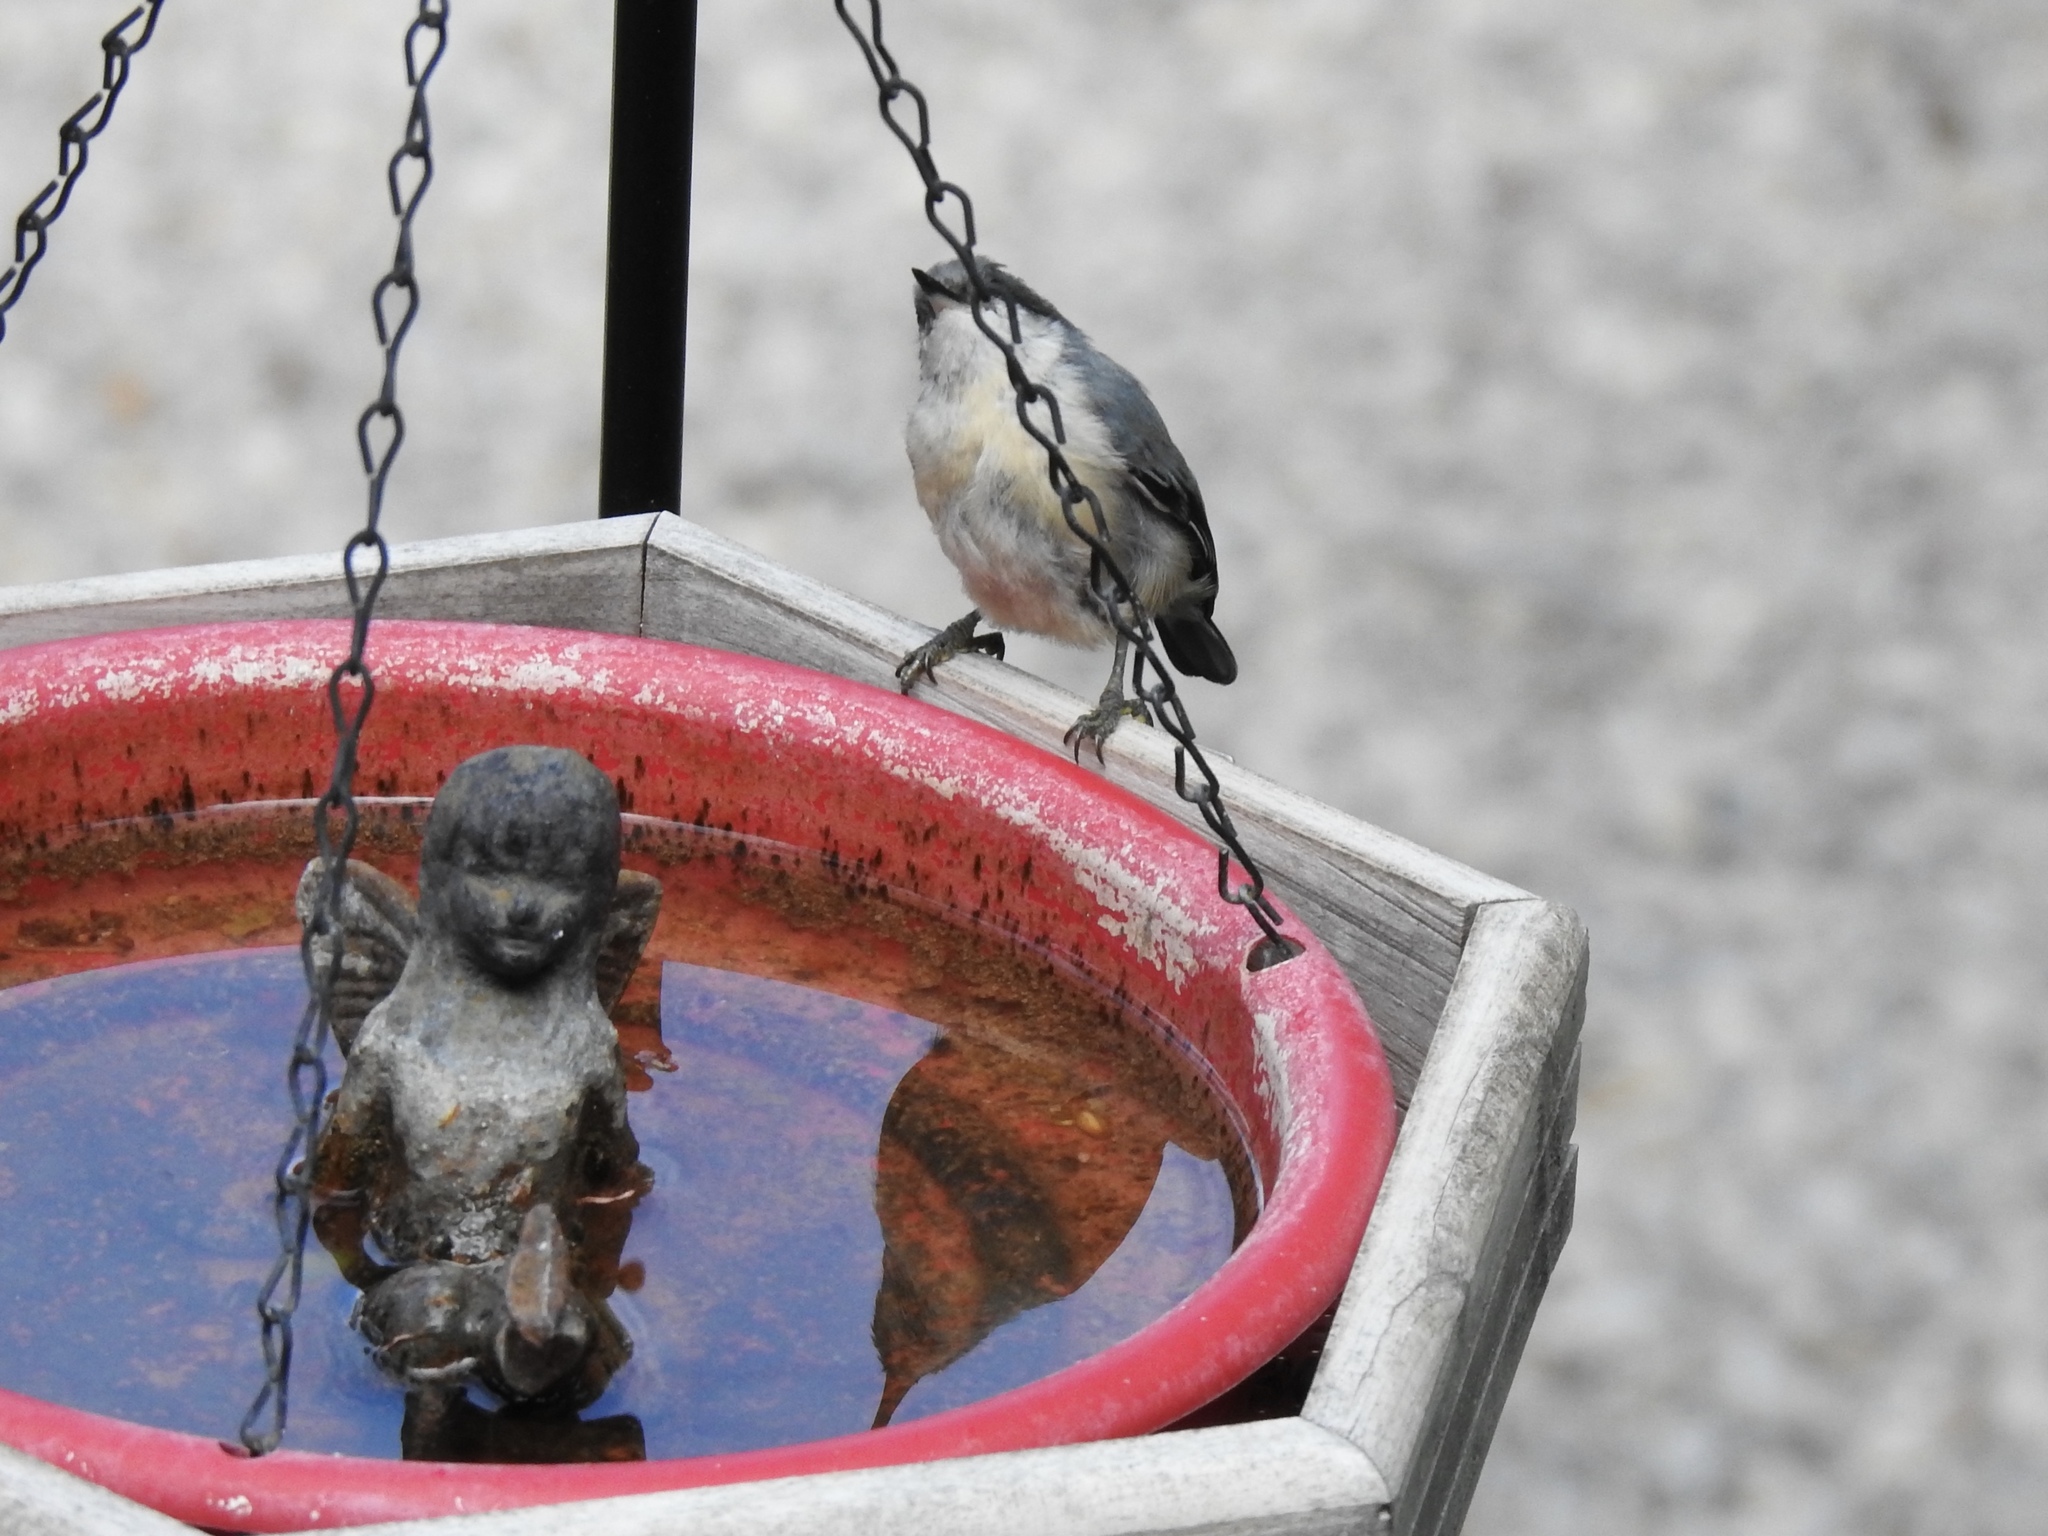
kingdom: Animalia
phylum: Chordata
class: Aves
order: Passeriformes
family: Sittidae
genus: Sitta
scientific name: Sitta pygmaea
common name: Pygmy nuthatch
